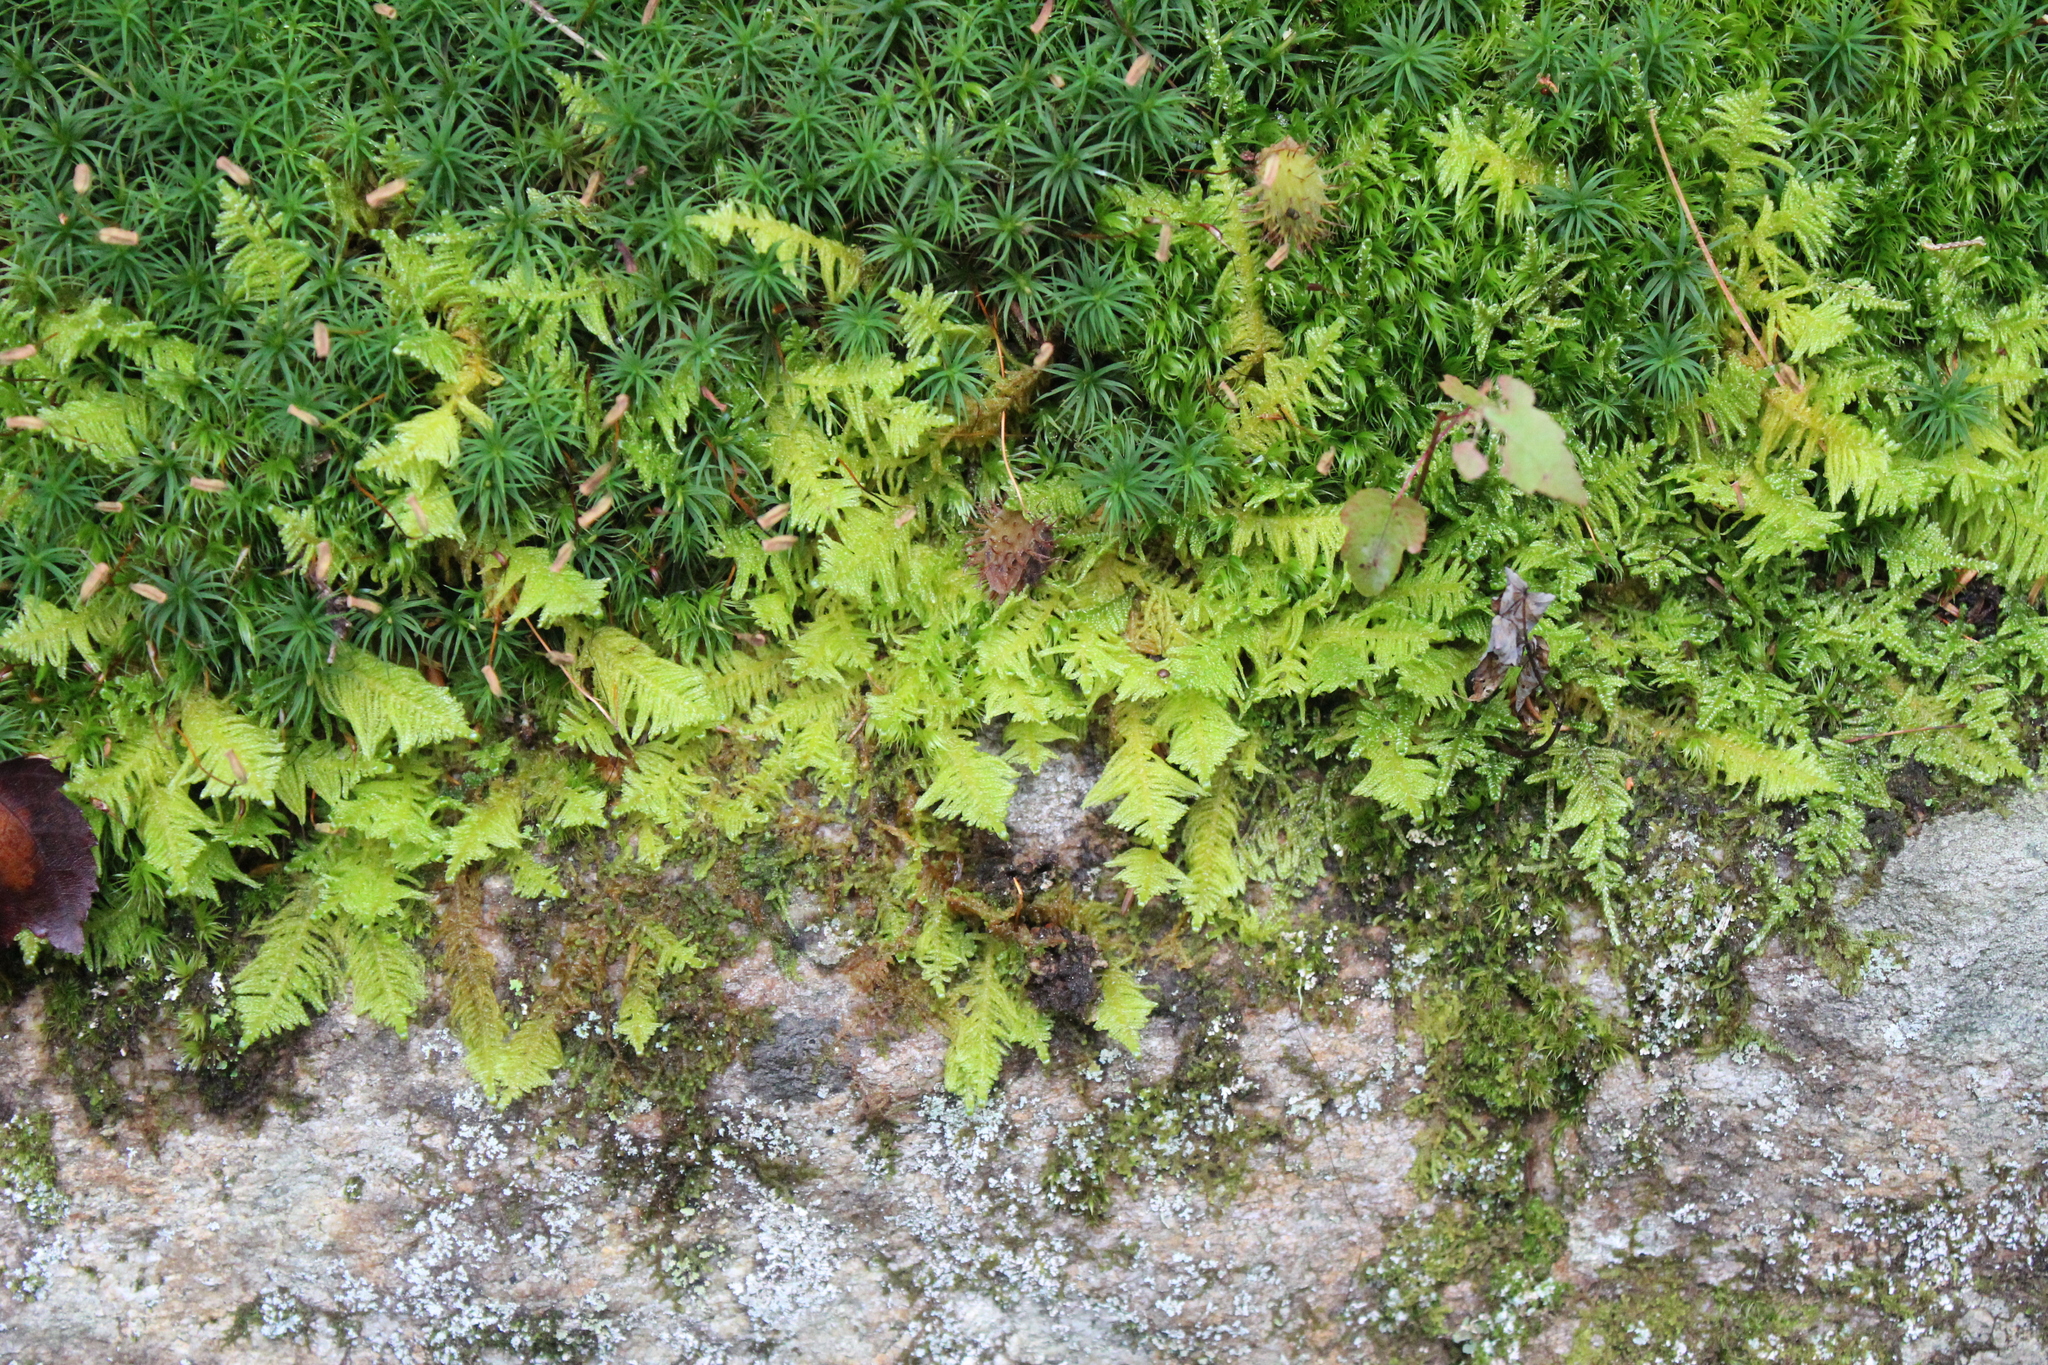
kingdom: Plantae
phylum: Bryophyta
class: Bryopsida
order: Hypnales
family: Pylaisiaceae
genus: Ptilium
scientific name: Ptilium crista-castrensis
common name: Knight's plume moss
